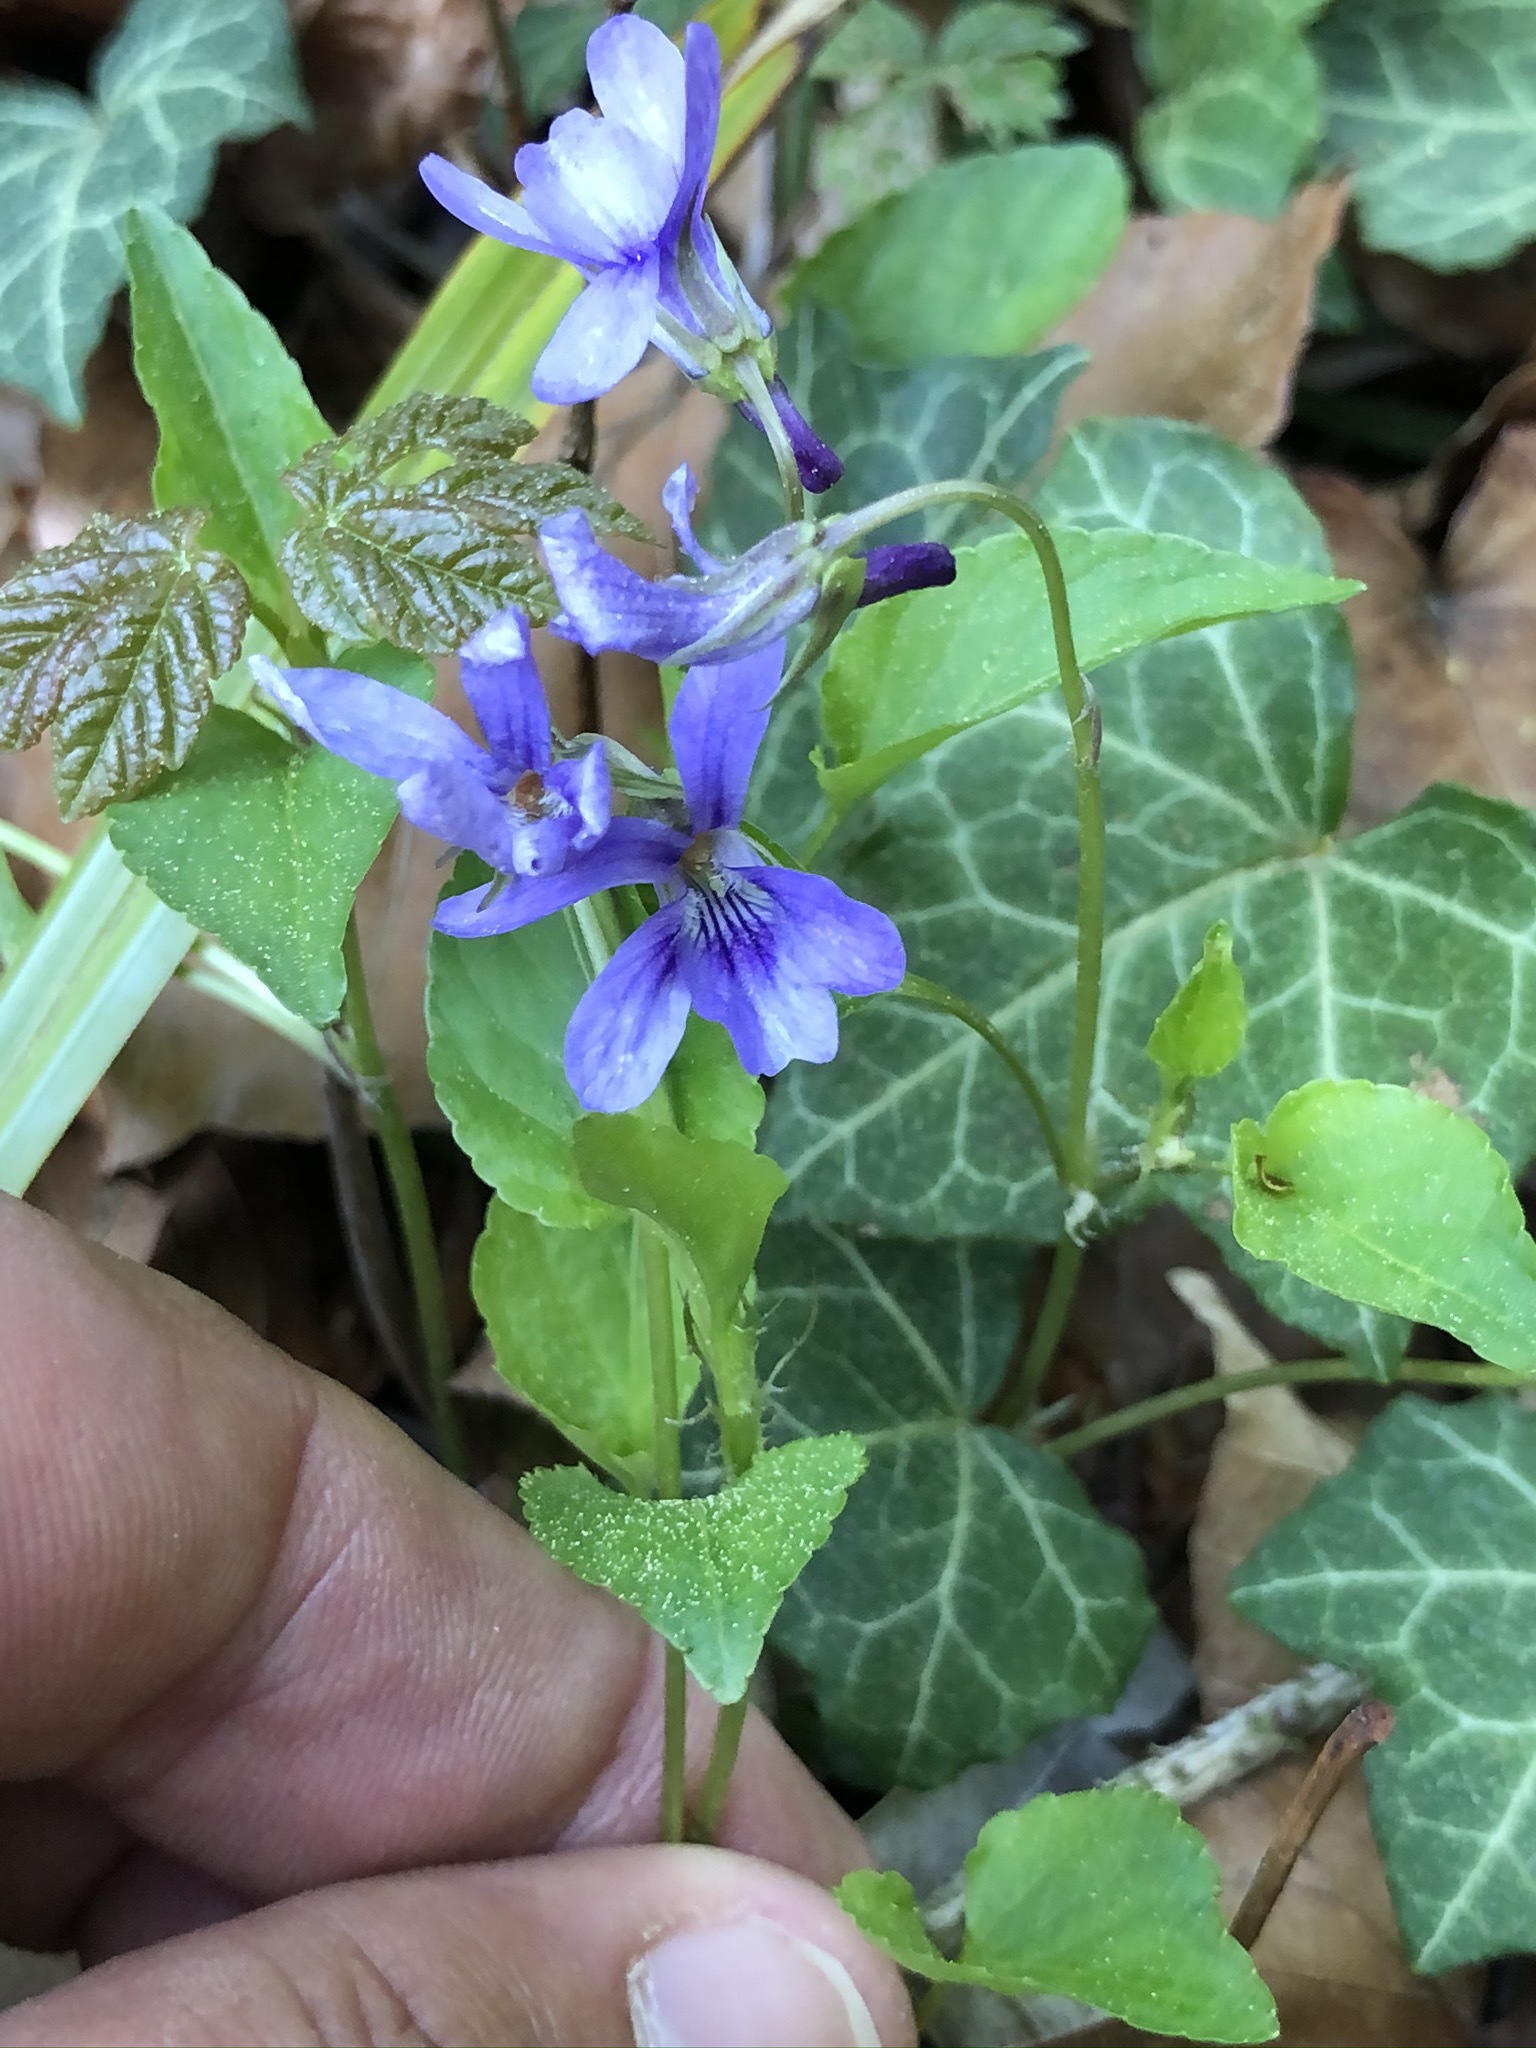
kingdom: Plantae
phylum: Tracheophyta
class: Magnoliopsida
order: Malpighiales
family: Violaceae
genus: Viola
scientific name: Viola reichenbachiana
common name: Early dog-violet
